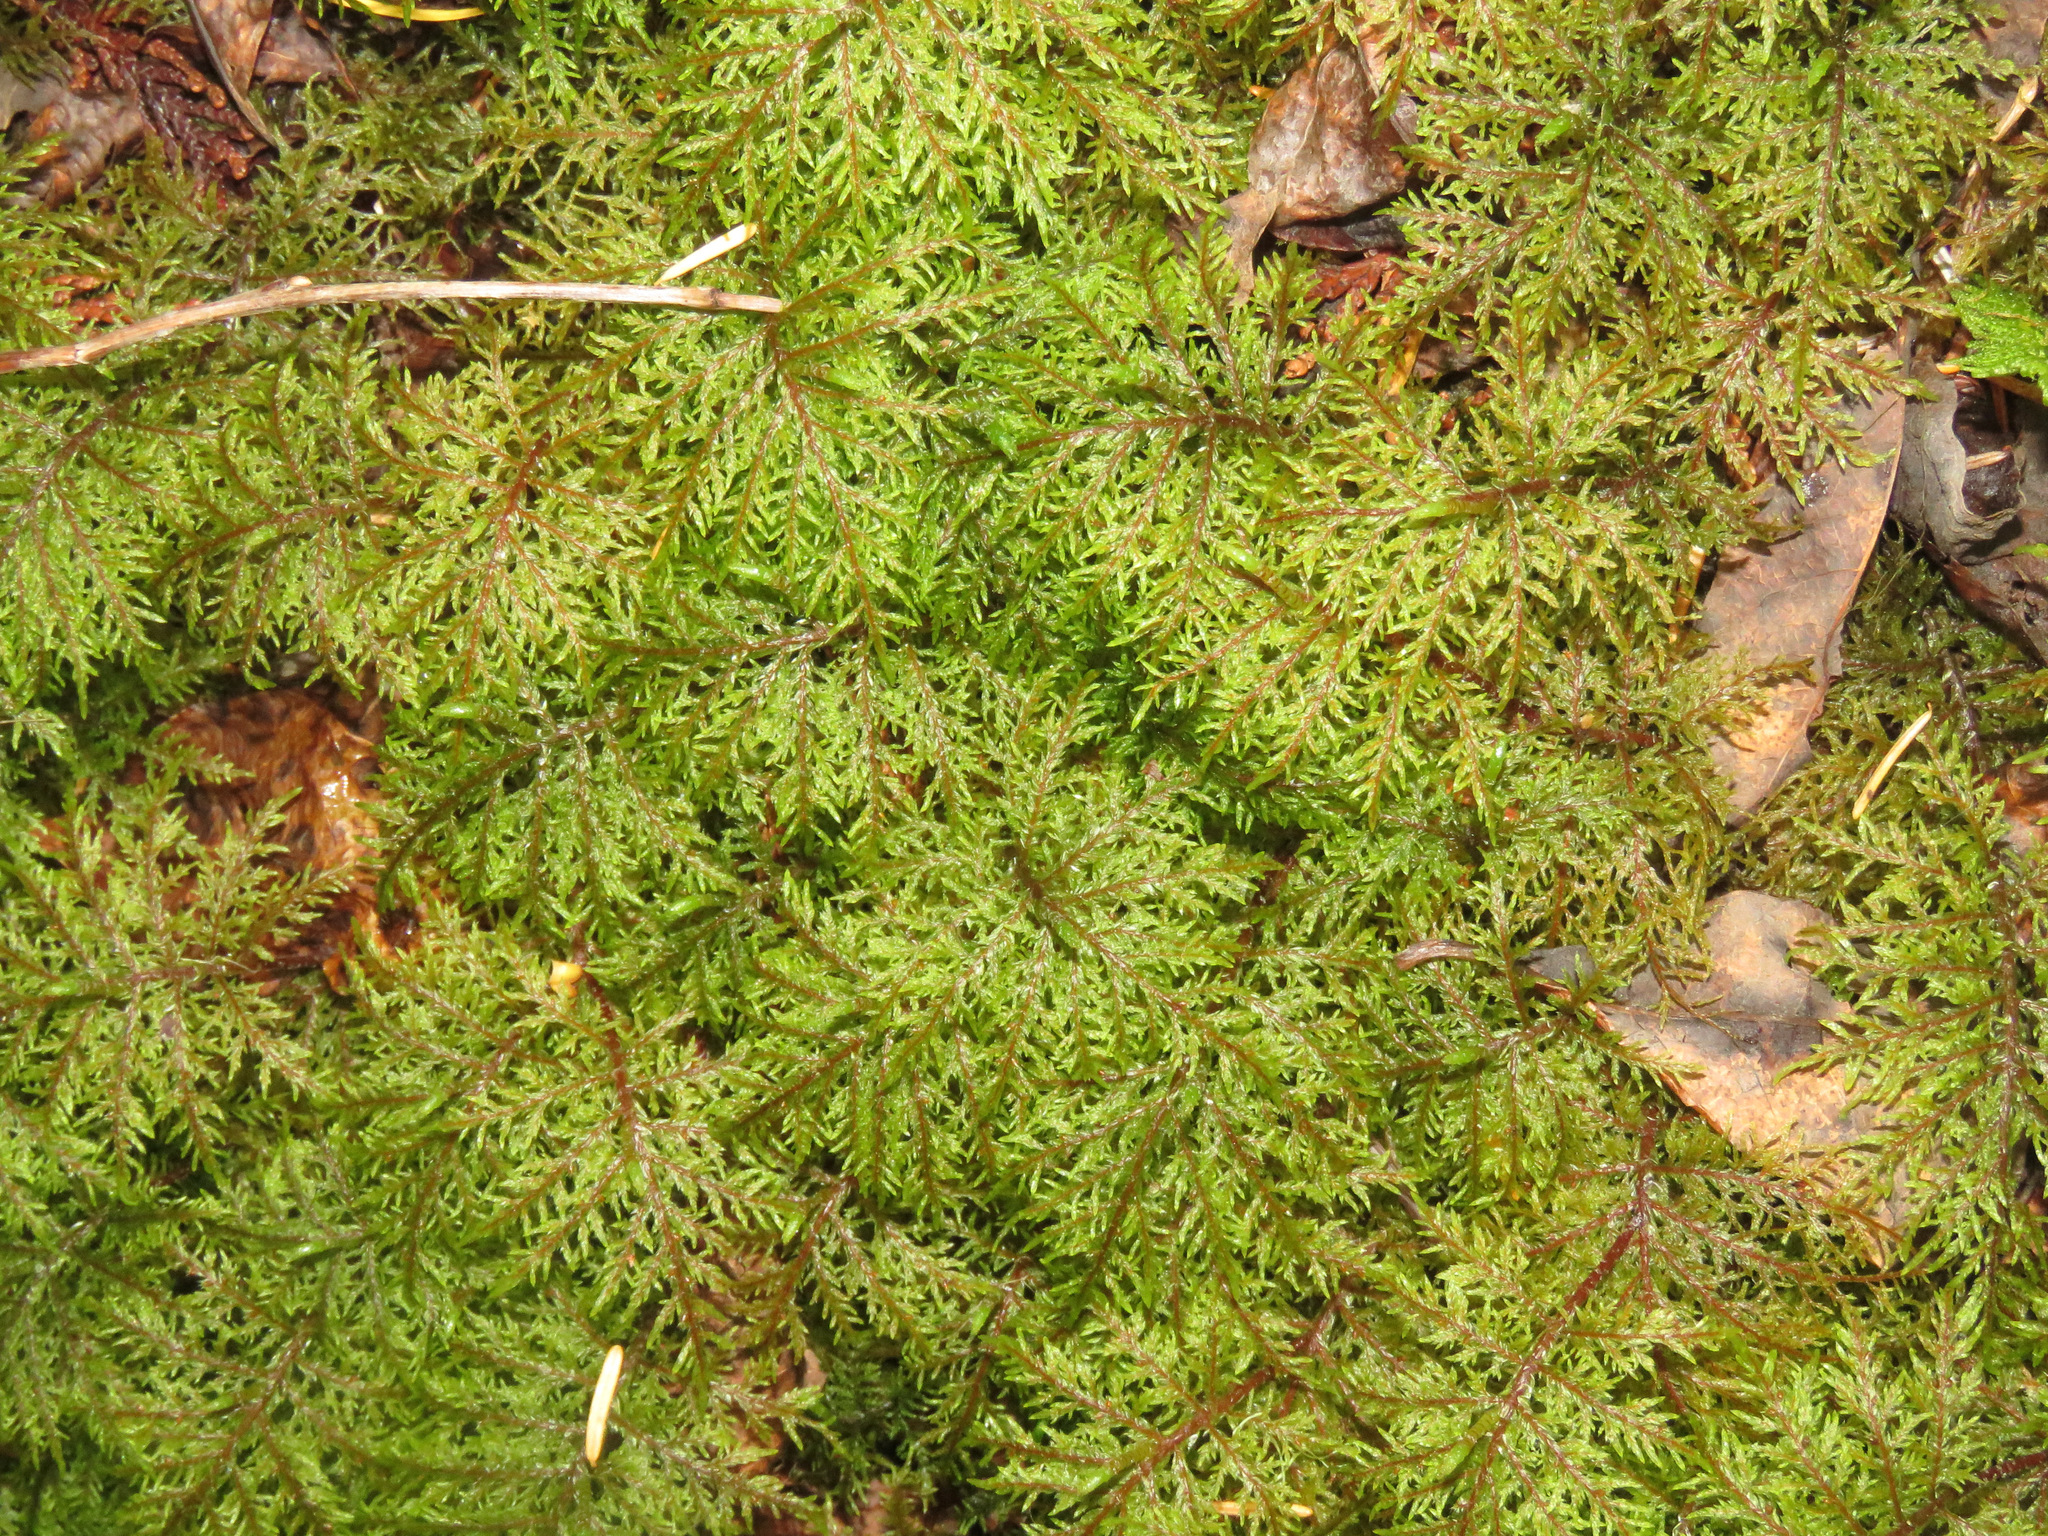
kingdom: Plantae
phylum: Bryophyta
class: Bryopsida
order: Hypnales
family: Hylocomiaceae
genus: Hylocomium
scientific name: Hylocomium splendens
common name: Stairstep moss
